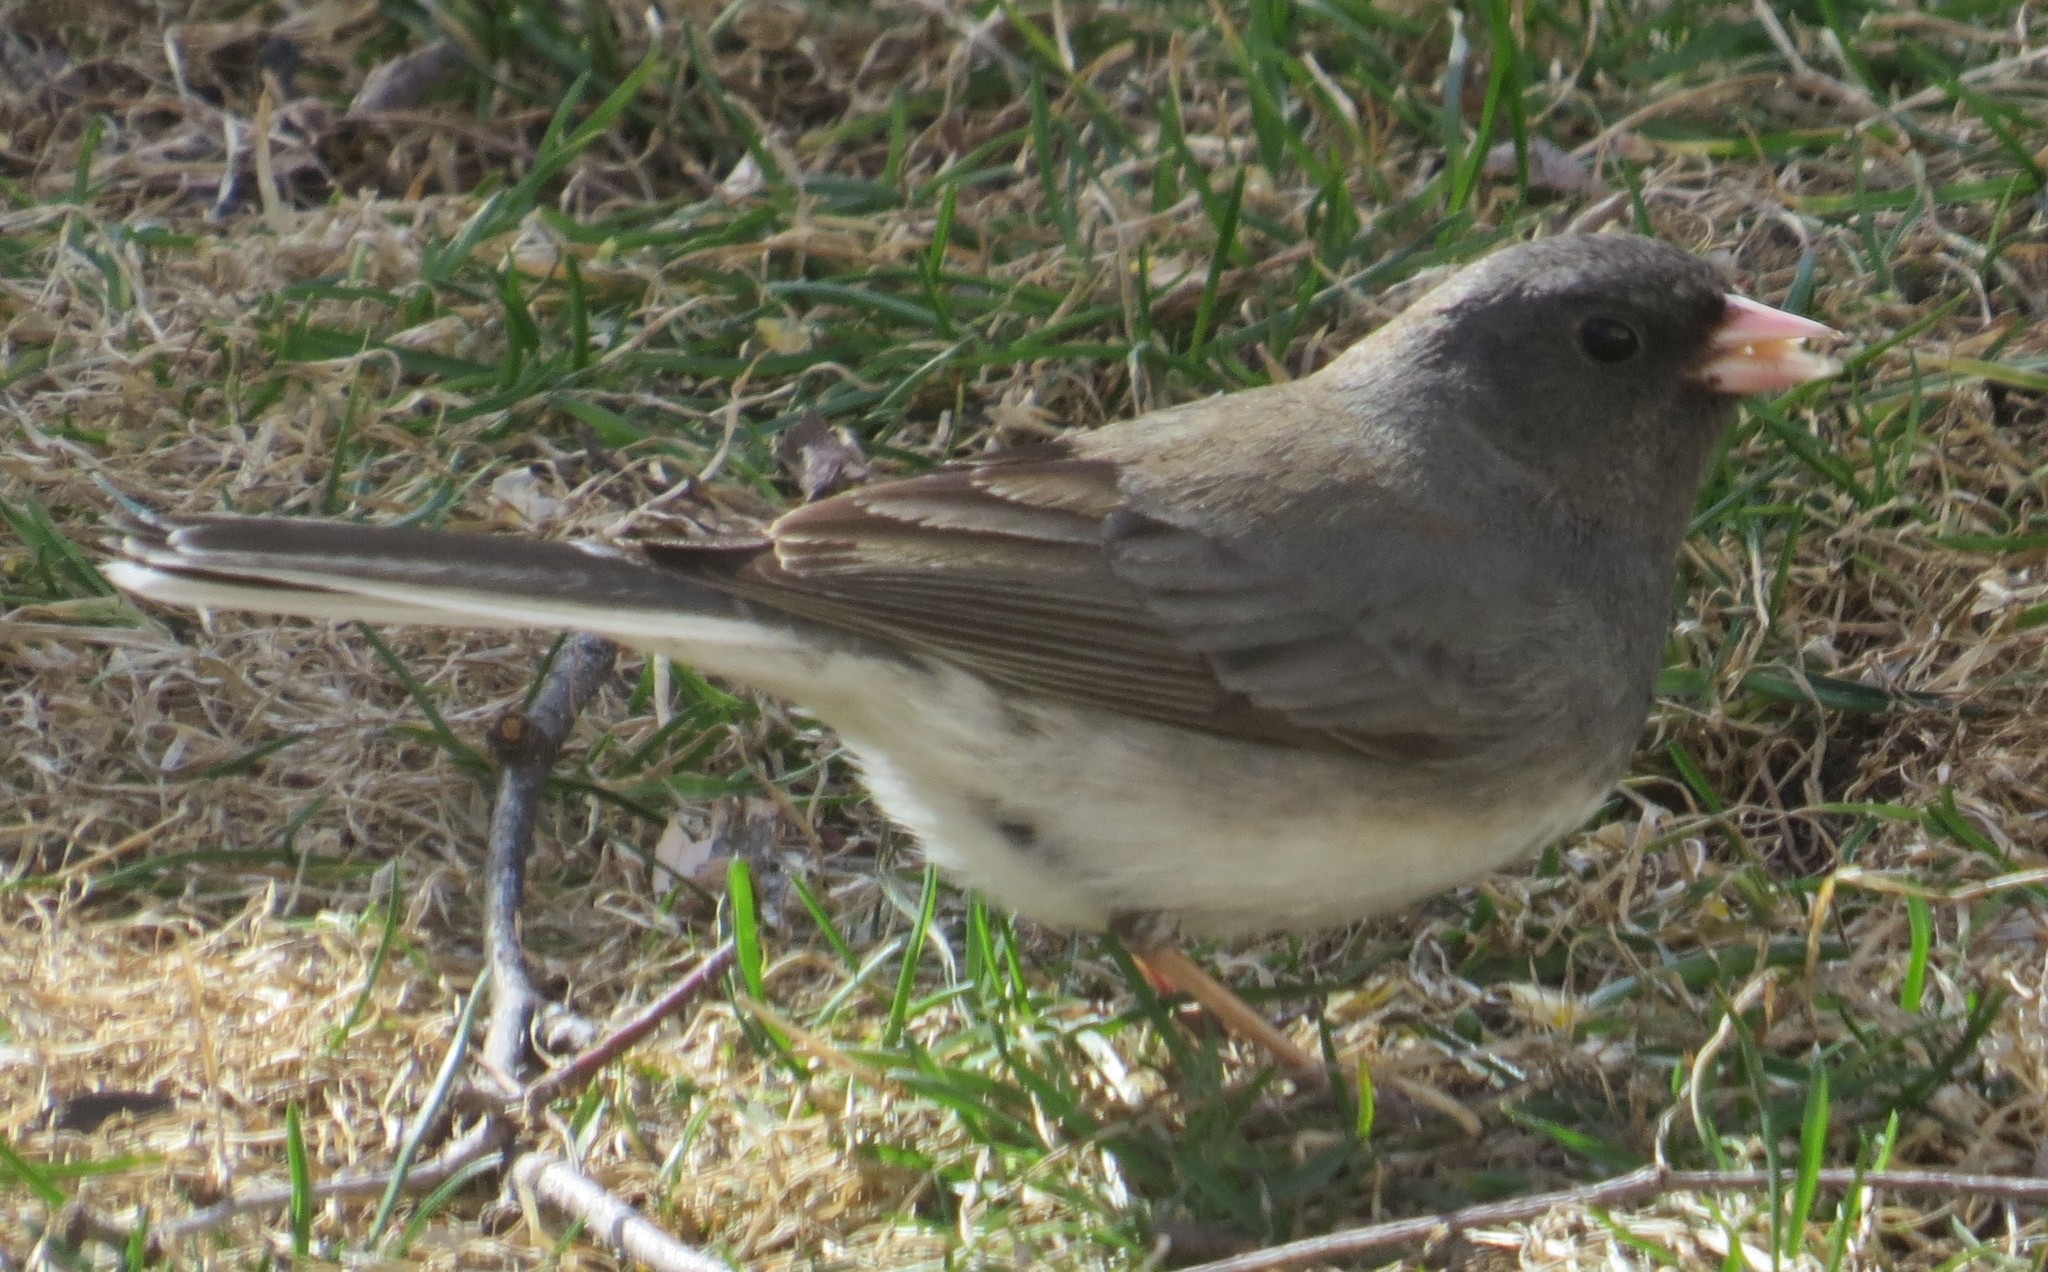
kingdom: Animalia
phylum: Chordata
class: Aves
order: Passeriformes
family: Passerellidae
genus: Junco
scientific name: Junco hyemalis
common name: Dark-eyed junco
